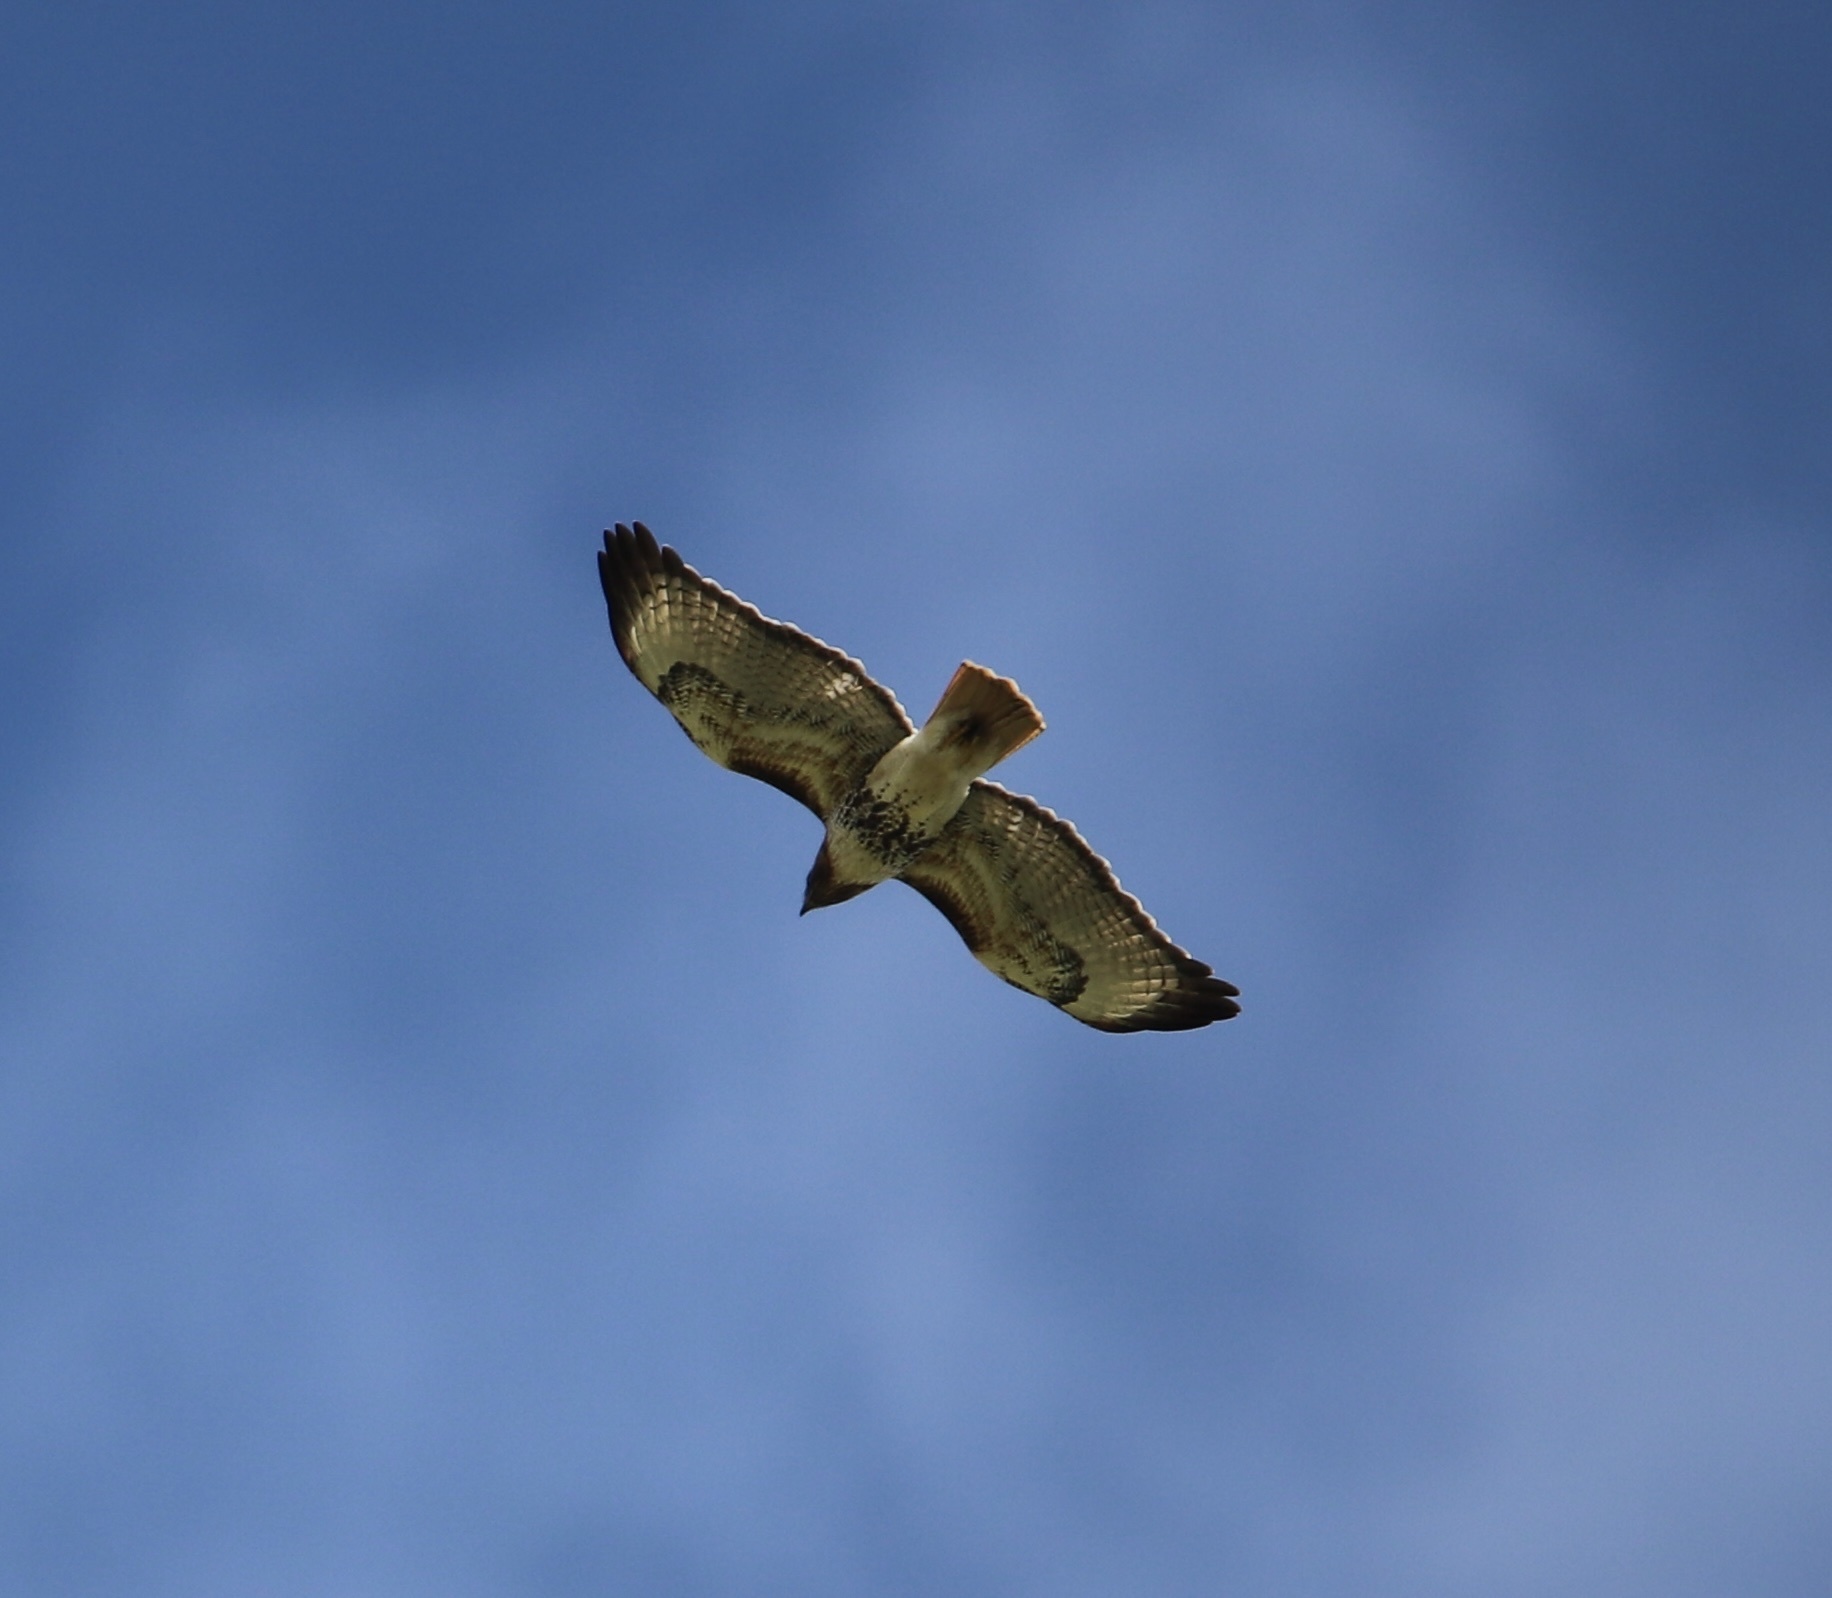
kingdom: Animalia
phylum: Chordata
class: Aves
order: Accipitriformes
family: Accipitridae
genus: Buteo
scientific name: Buteo jamaicensis
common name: Red-tailed hawk
